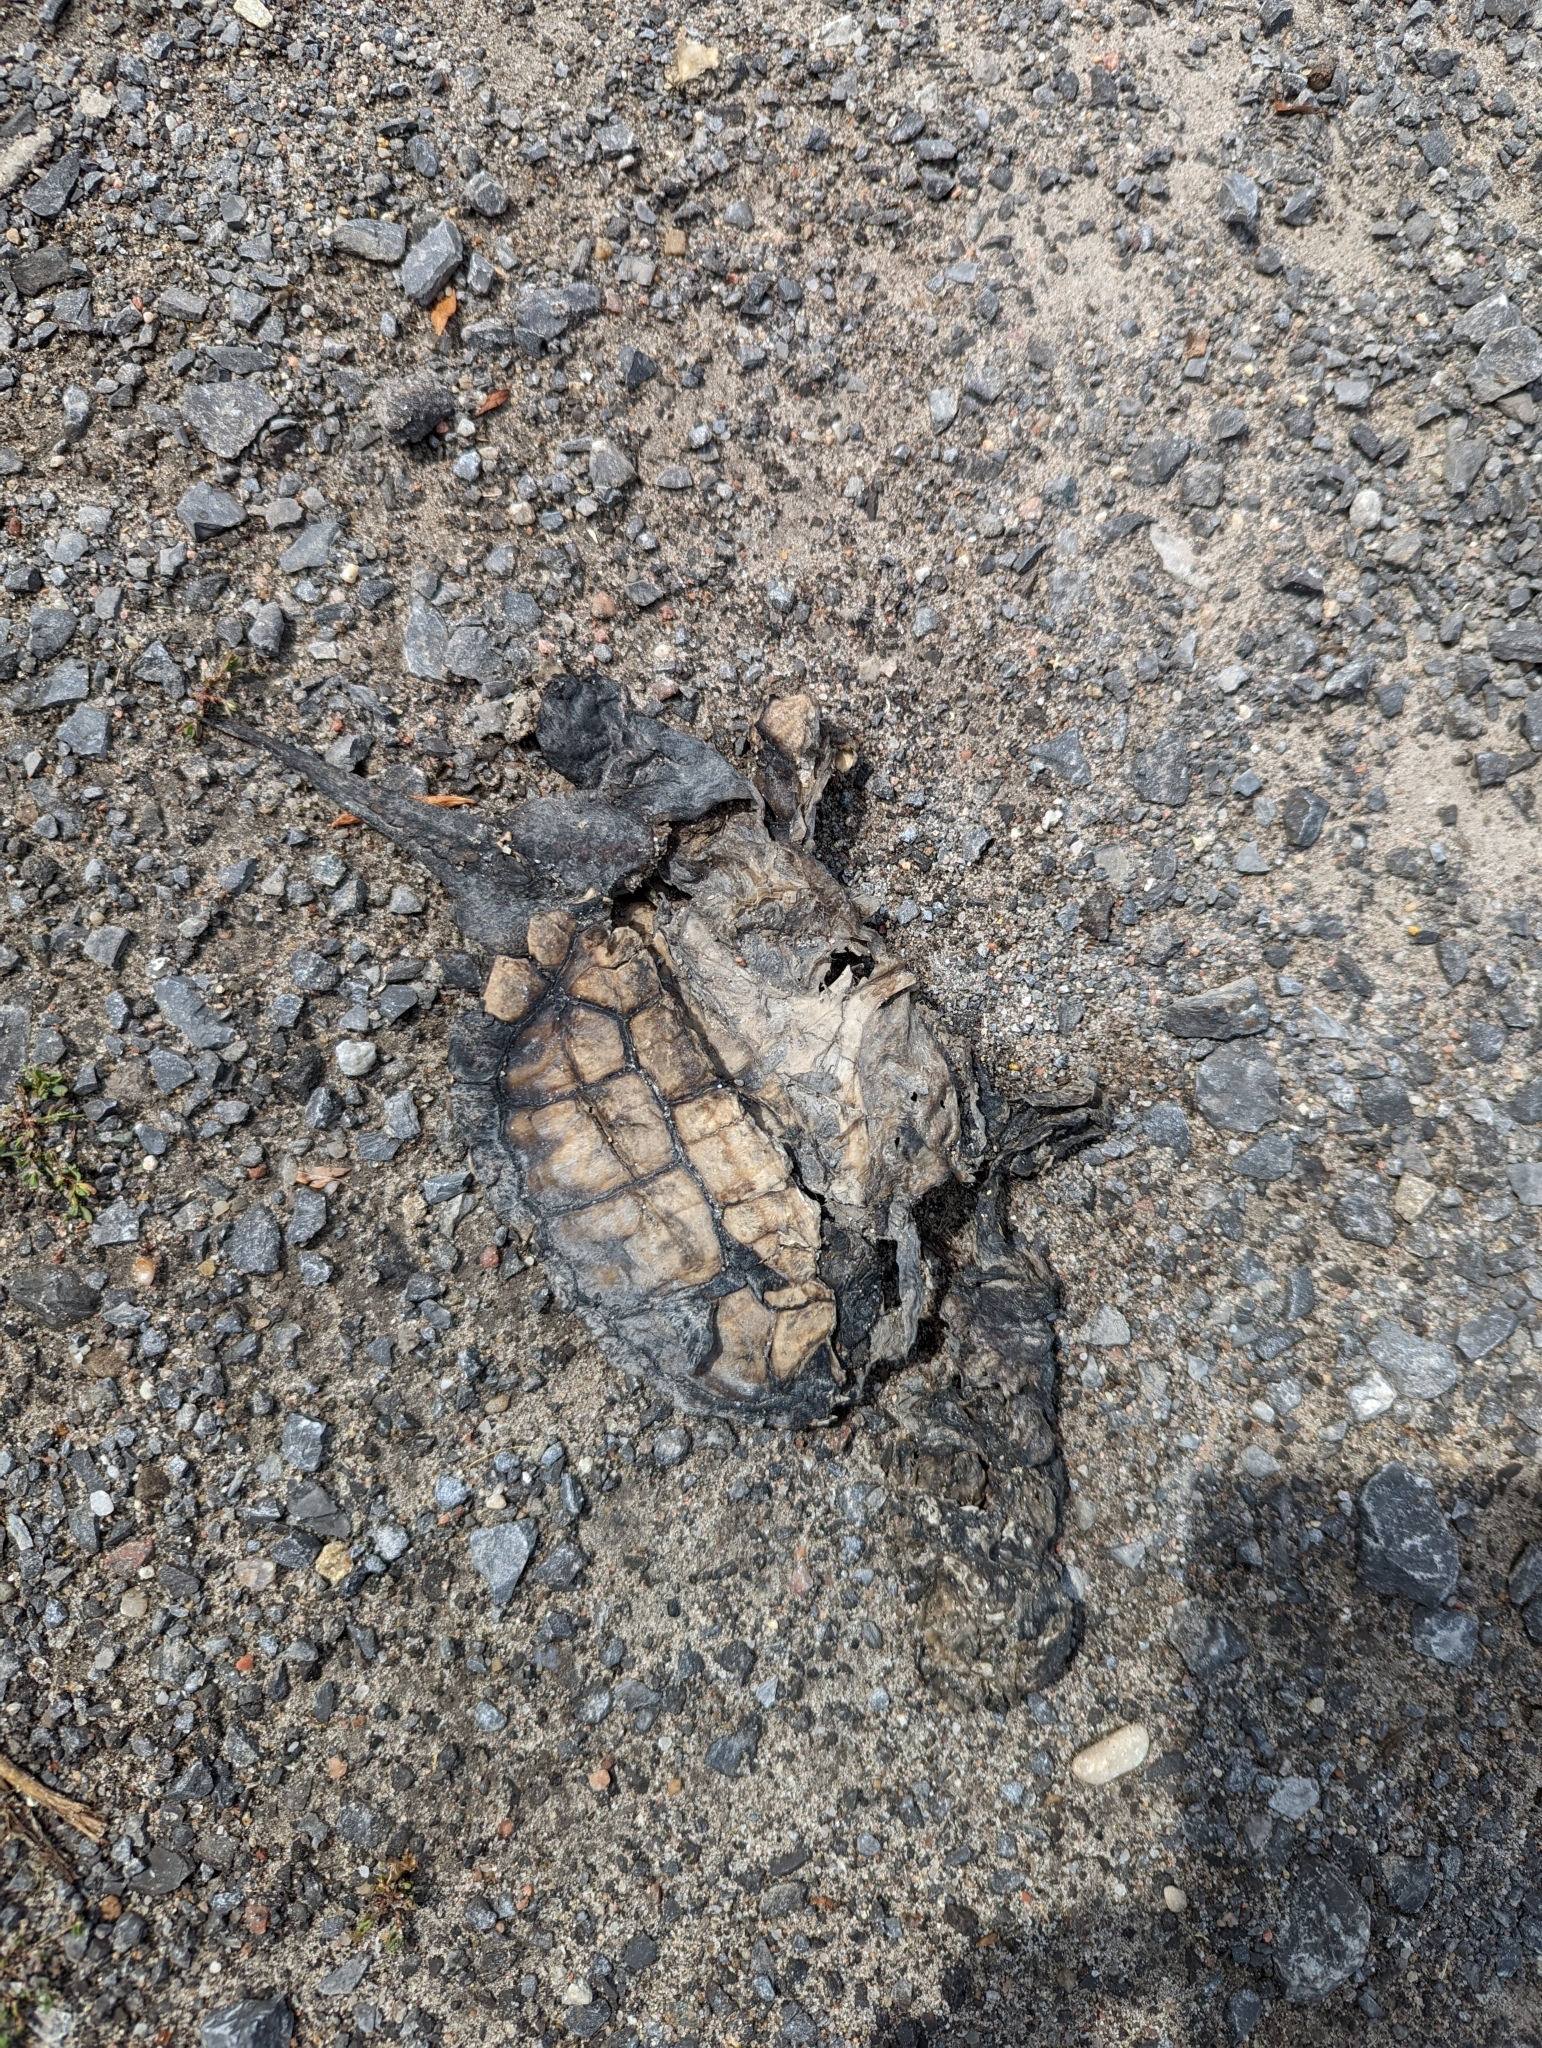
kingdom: Animalia
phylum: Chordata
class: Testudines
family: Chelydridae
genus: Chelydra
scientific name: Chelydra serpentina
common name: Common snapping turtle
